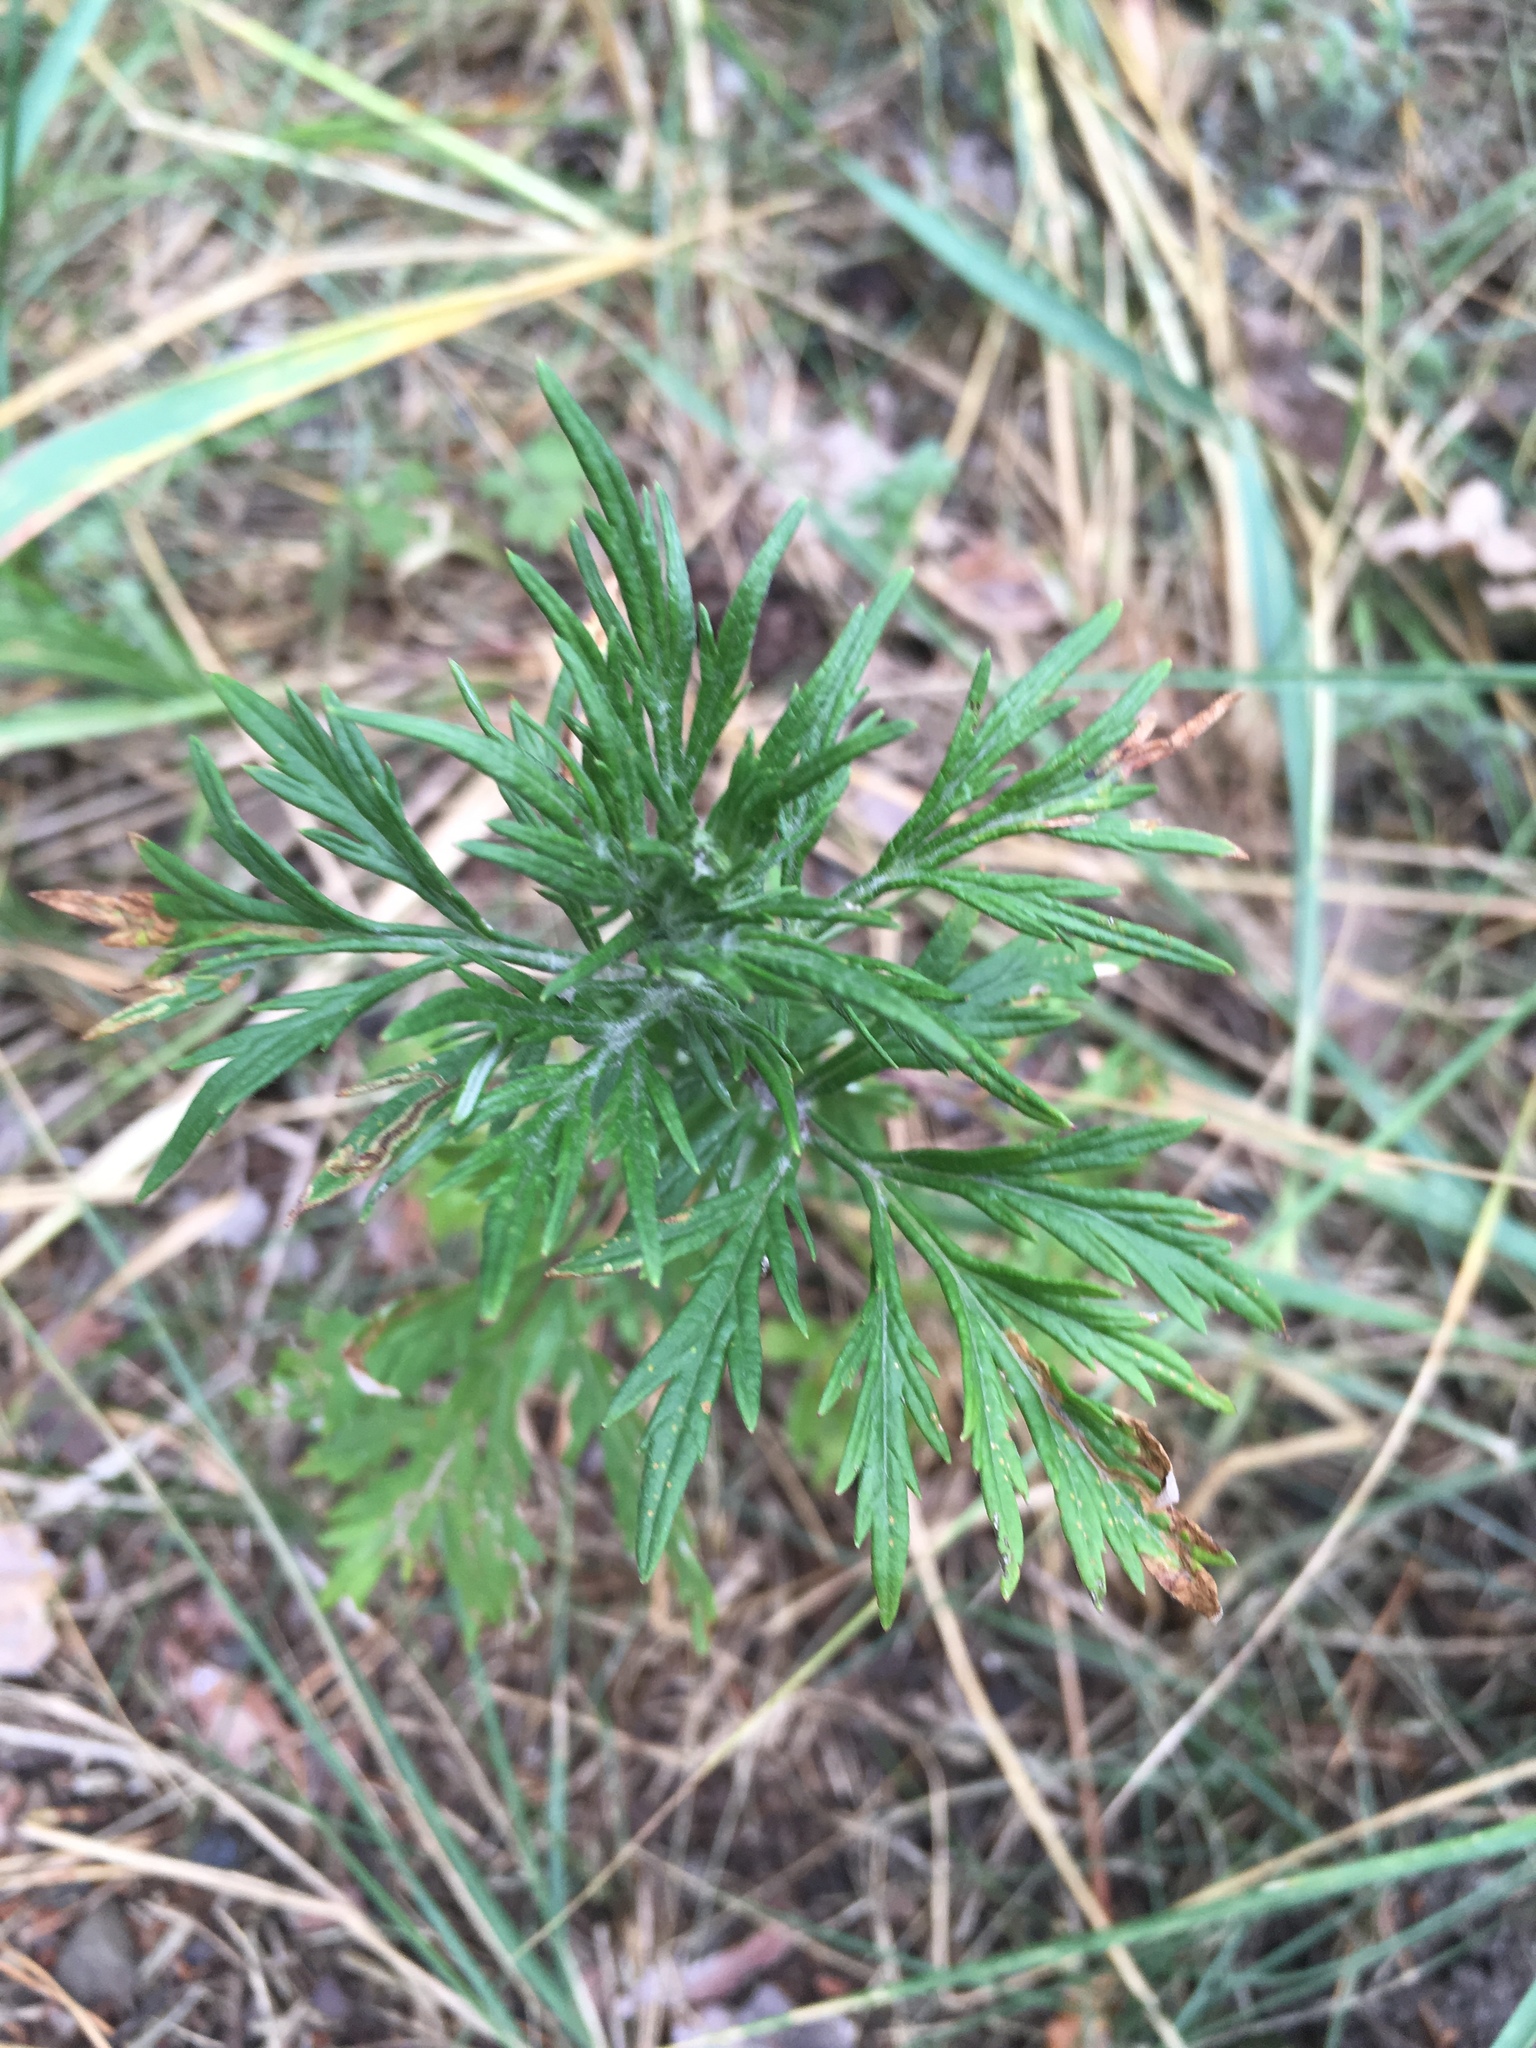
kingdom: Plantae
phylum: Tracheophyta
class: Magnoliopsida
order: Asterales
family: Asteraceae
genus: Artemisia
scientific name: Artemisia vulgaris
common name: Mugwort
